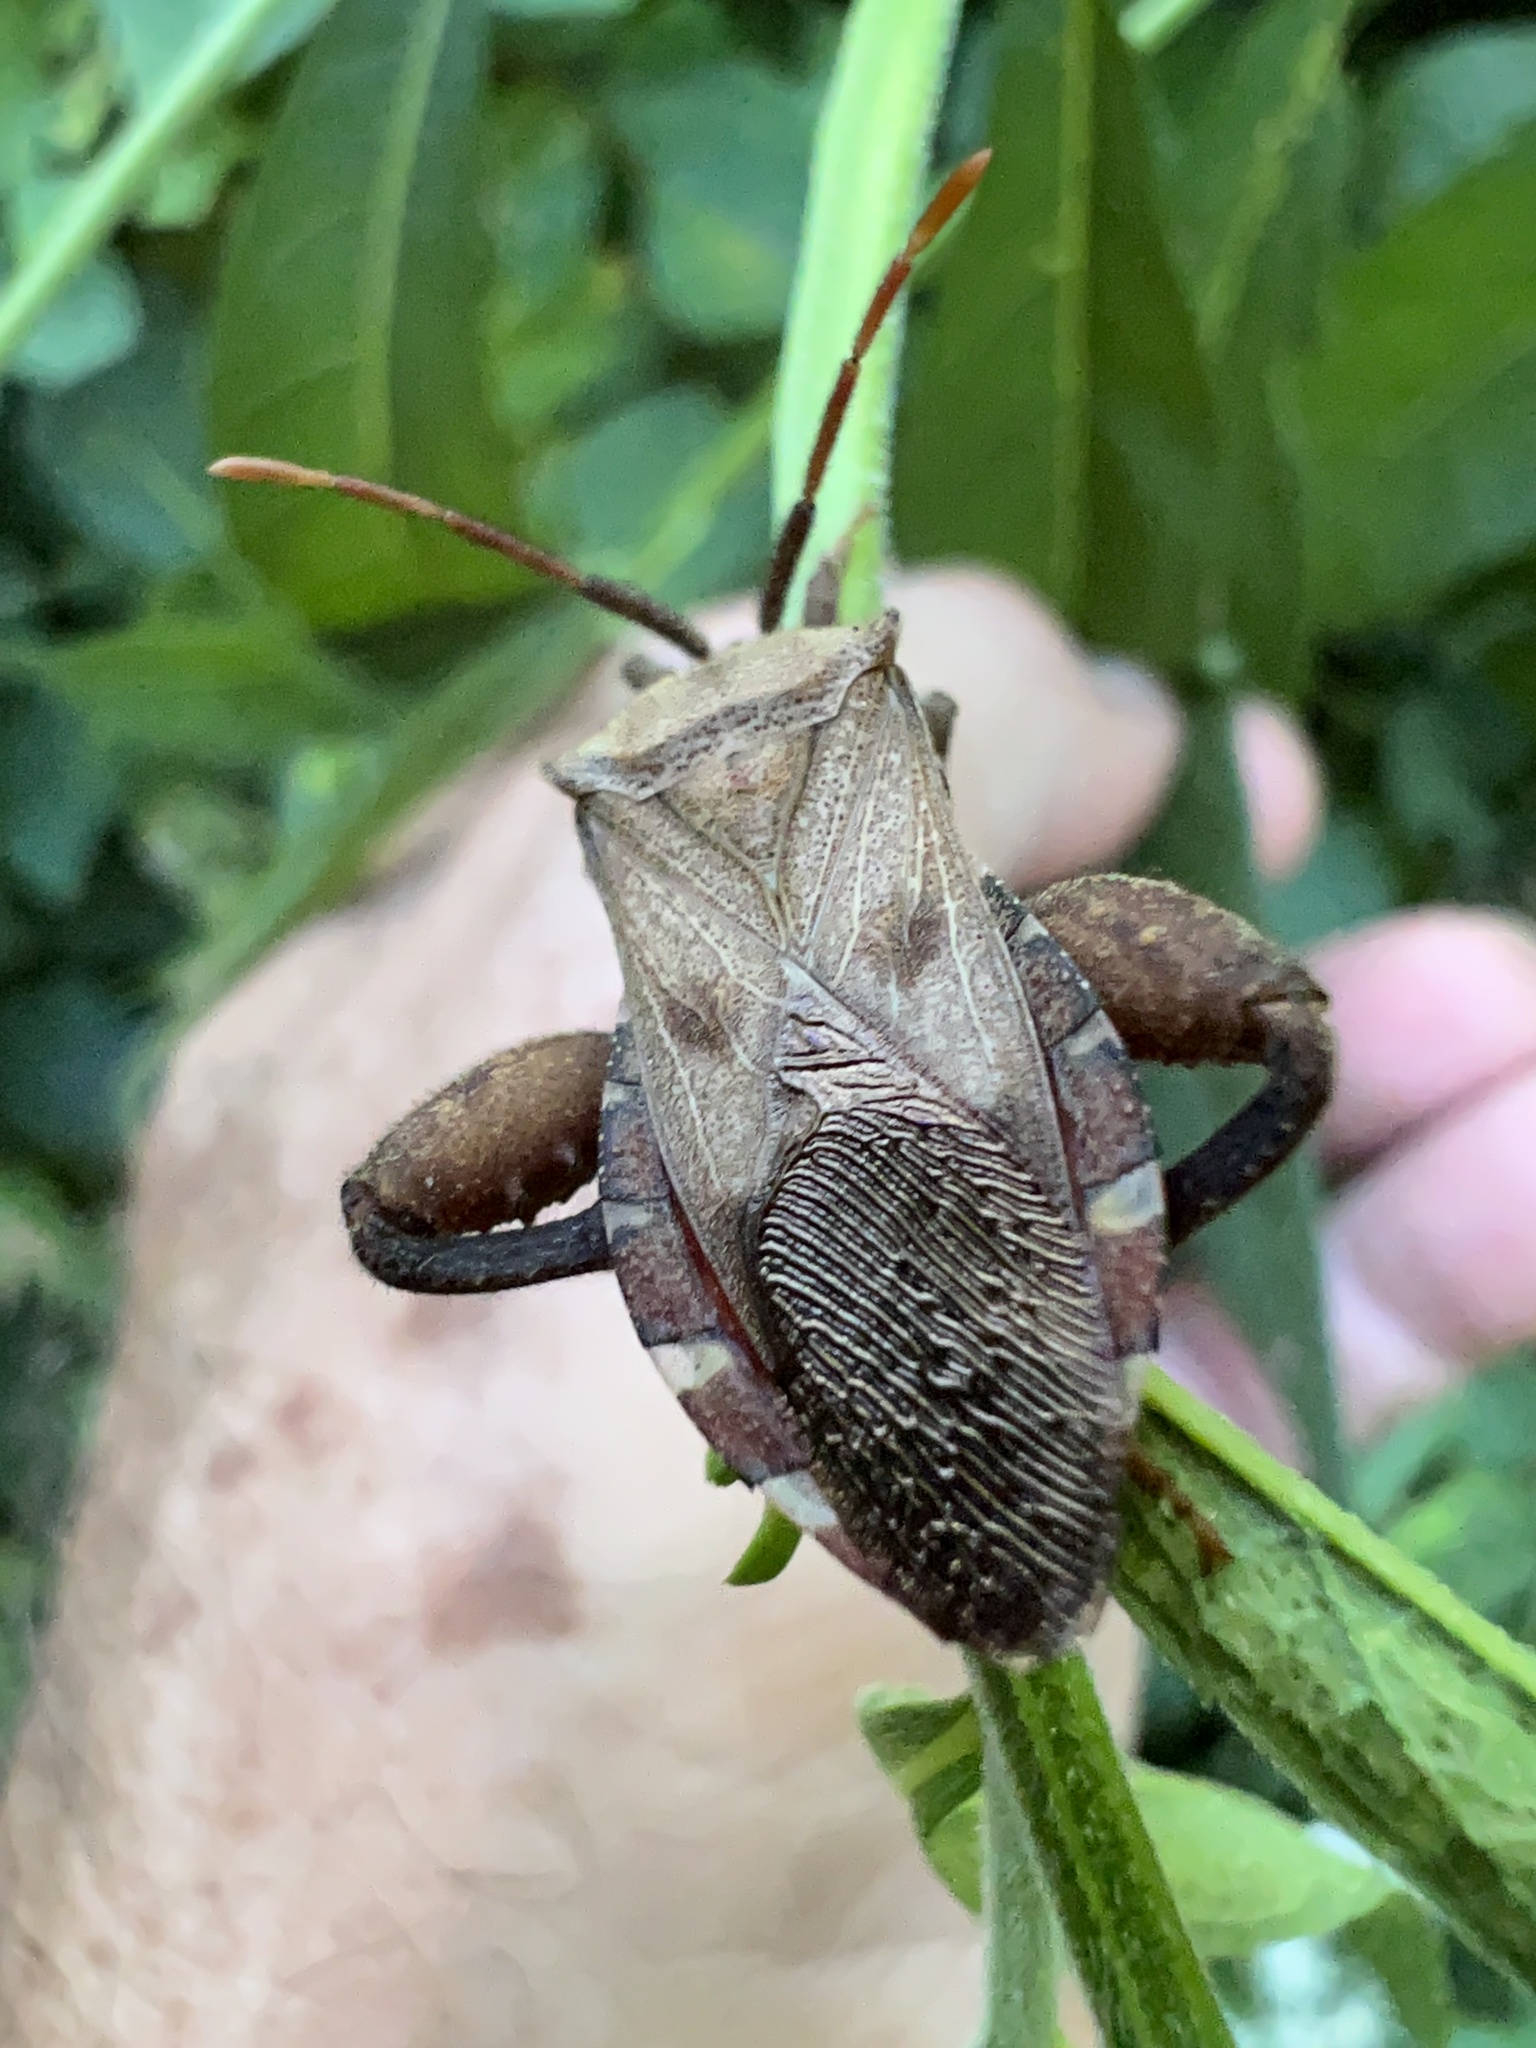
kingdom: Animalia
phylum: Arthropoda
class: Insecta
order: Hemiptera
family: Coreidae
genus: Piezogaster
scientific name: Piezogaster calcarator
